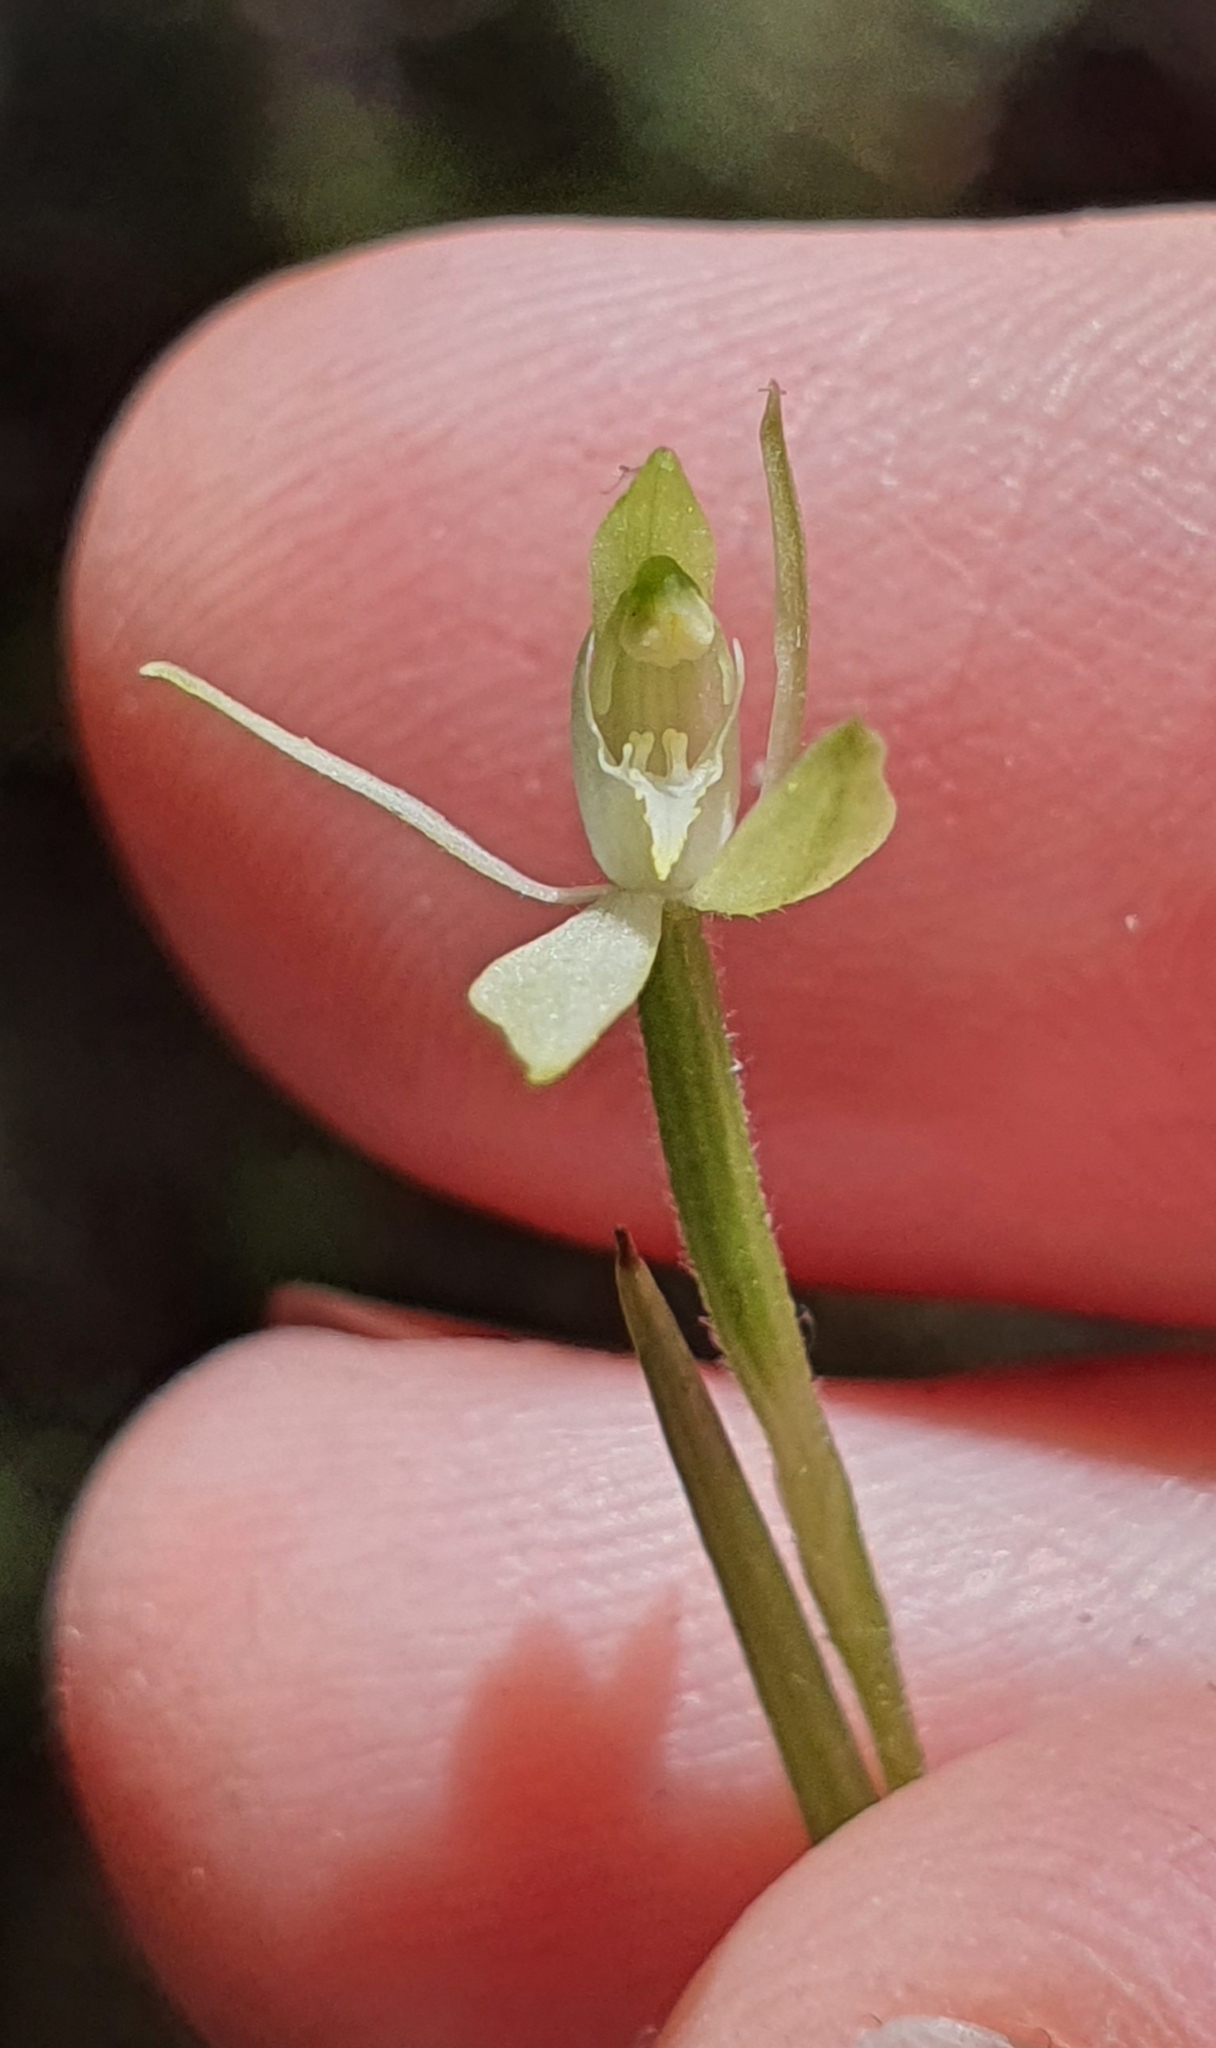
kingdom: Plantae
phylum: Tracheophyta
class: Liliopsida
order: Asparagales
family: Orchidaceae
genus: Caladenia
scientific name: Caladenia nothofageti
